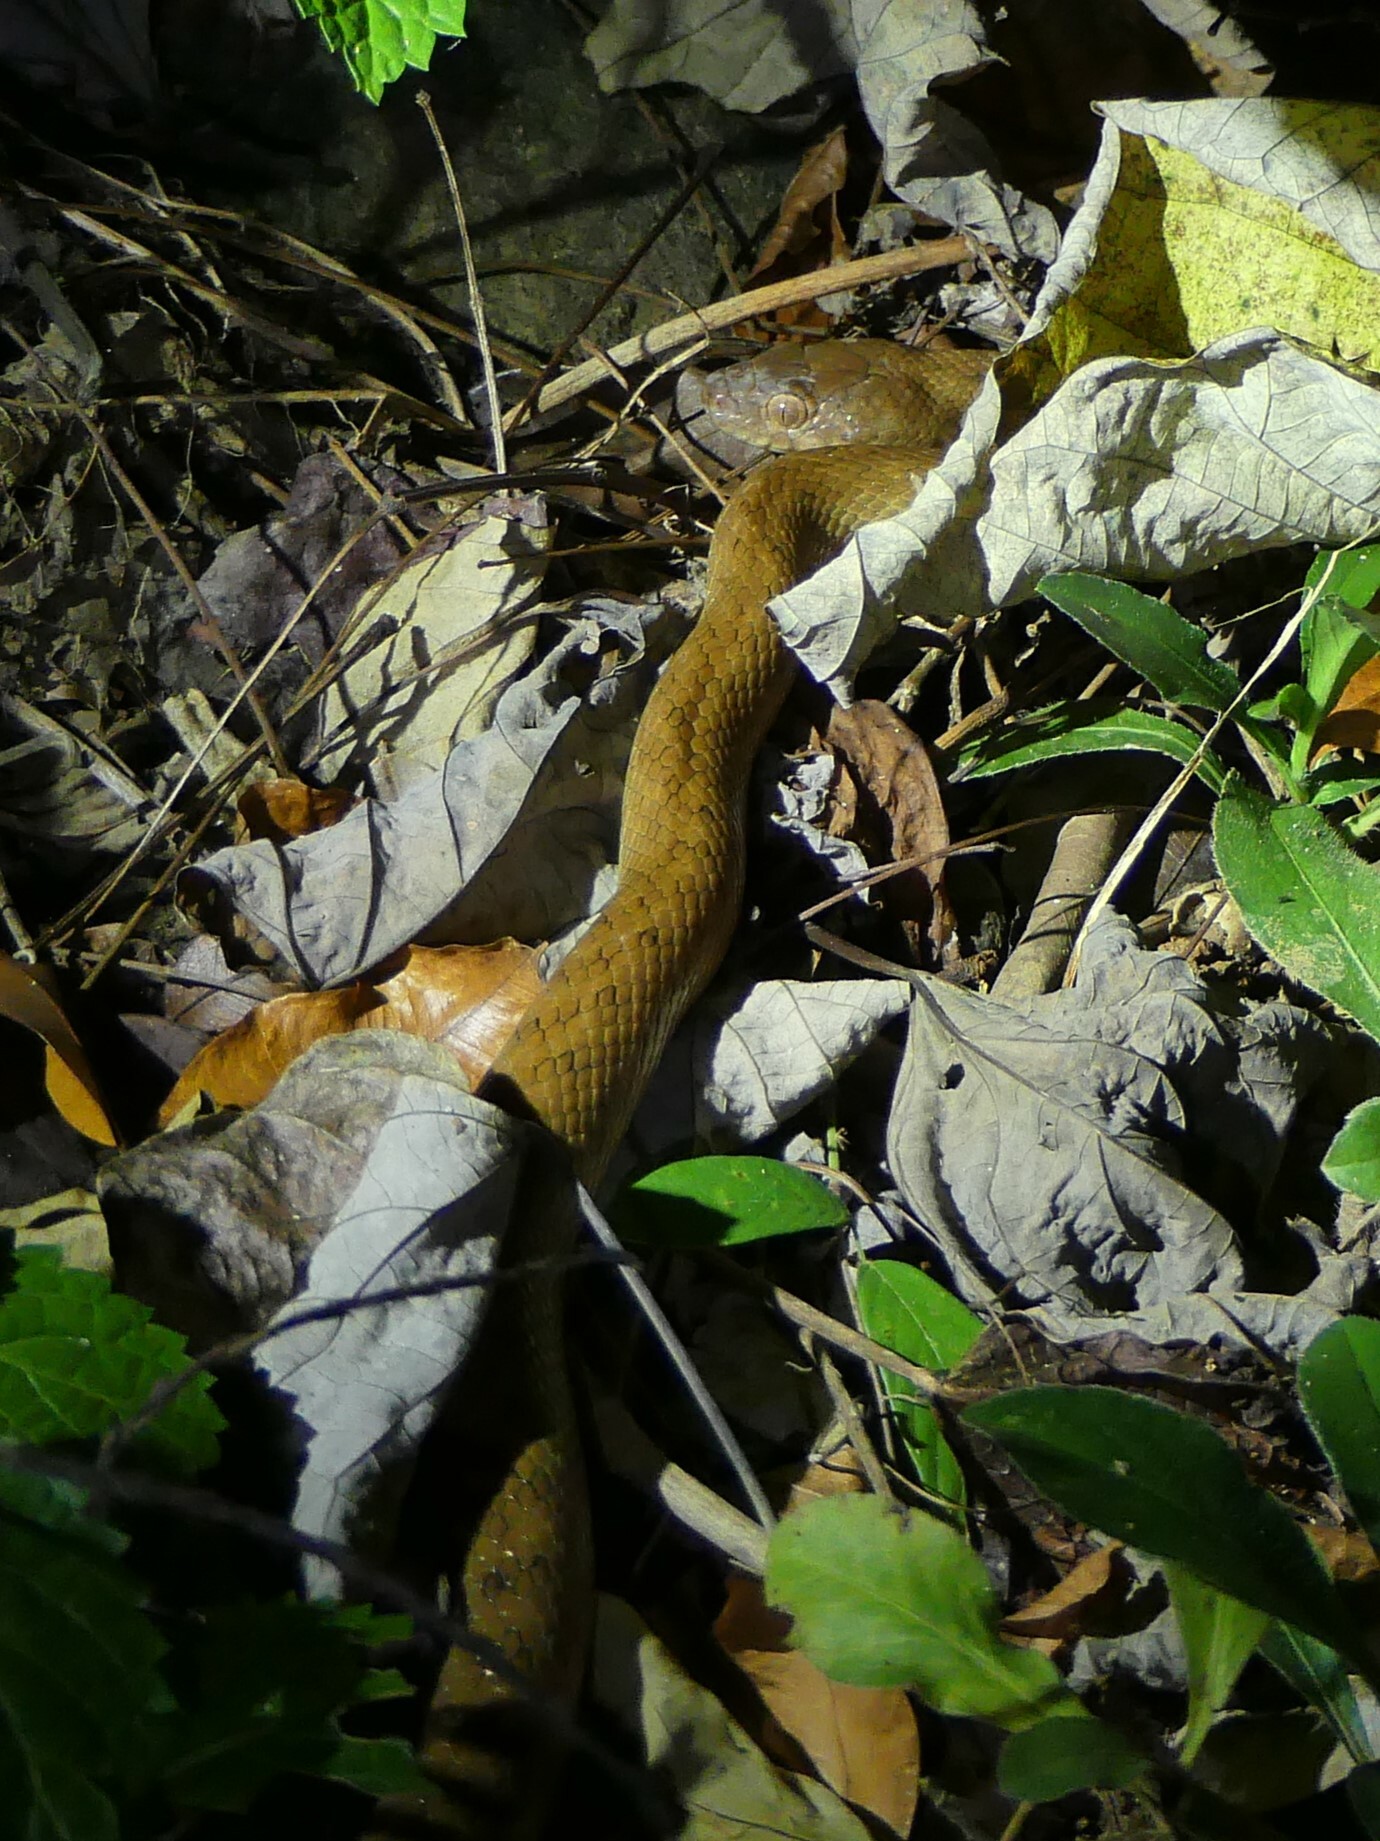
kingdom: Animalia
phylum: Chordata
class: Squamata
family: Pseudoxyrhophiidae
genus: Madagascarophis
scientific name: Madagascarophis colubrinus
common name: Madagascar night snake
